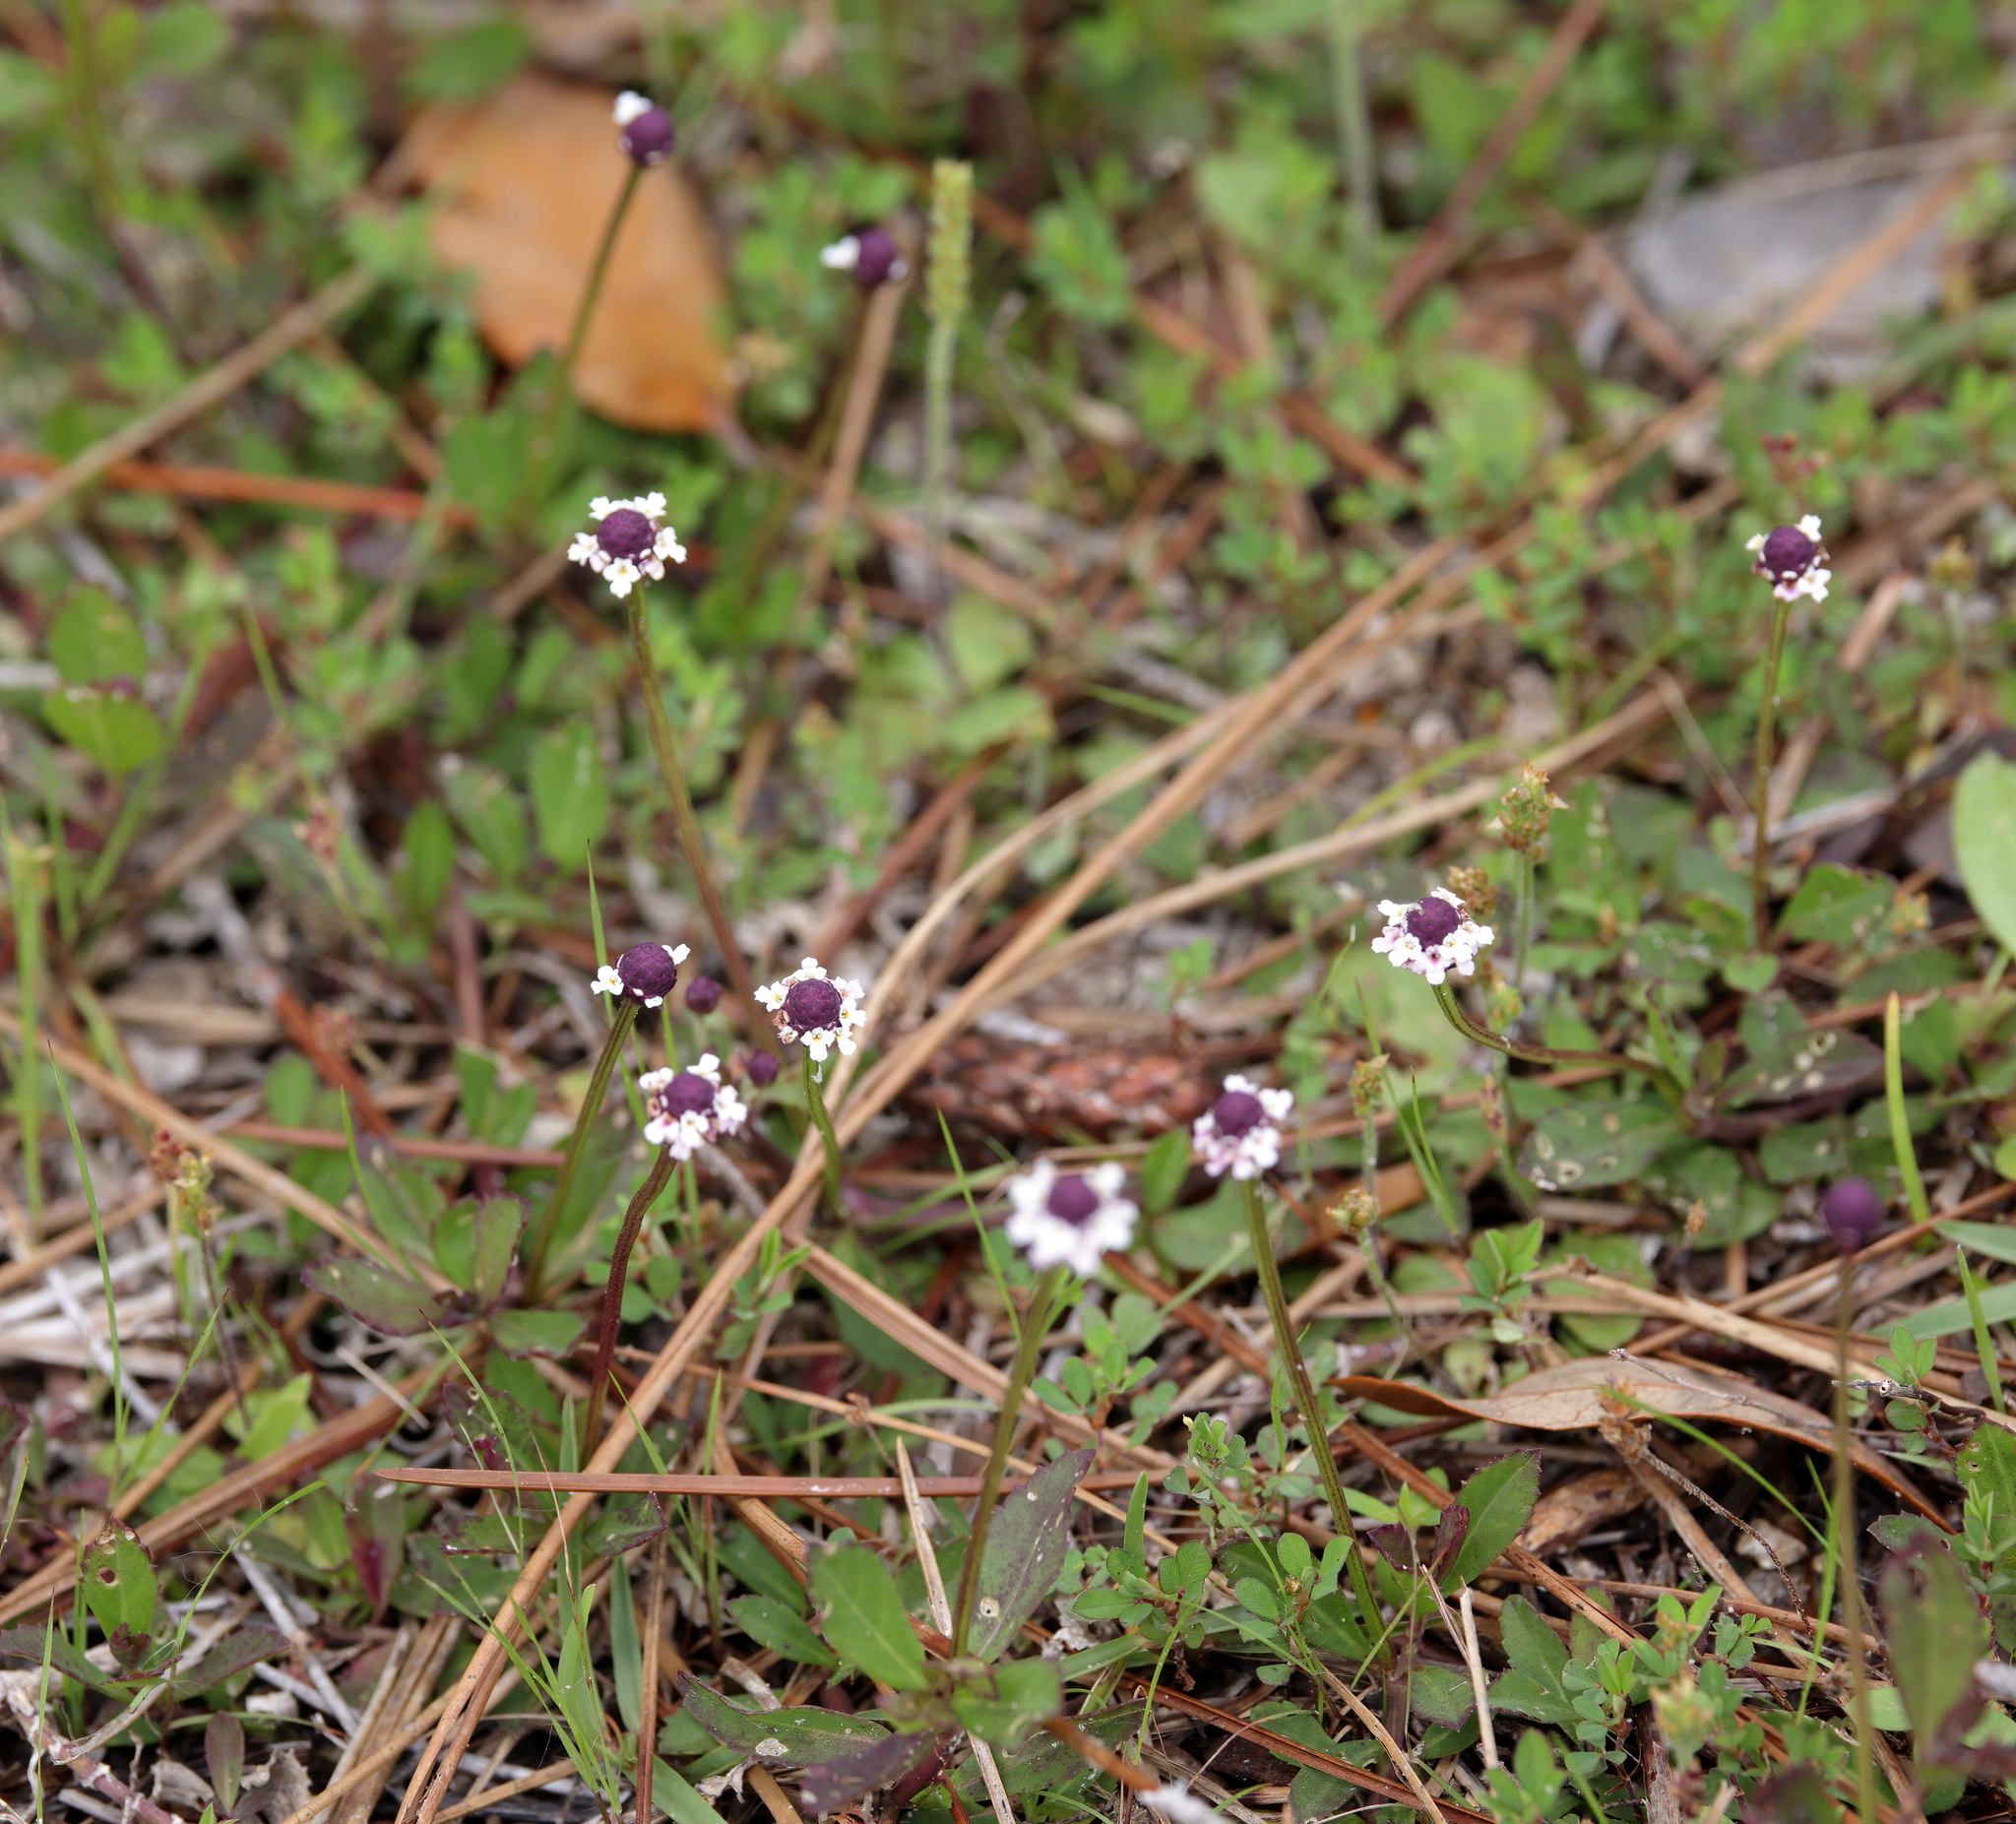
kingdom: Plantae
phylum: Tracheophyta
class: Magnoliopsida
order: Lamiales
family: Verbenaceae
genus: Phyla
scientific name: Phyla nodiflora
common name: Frogfruit
